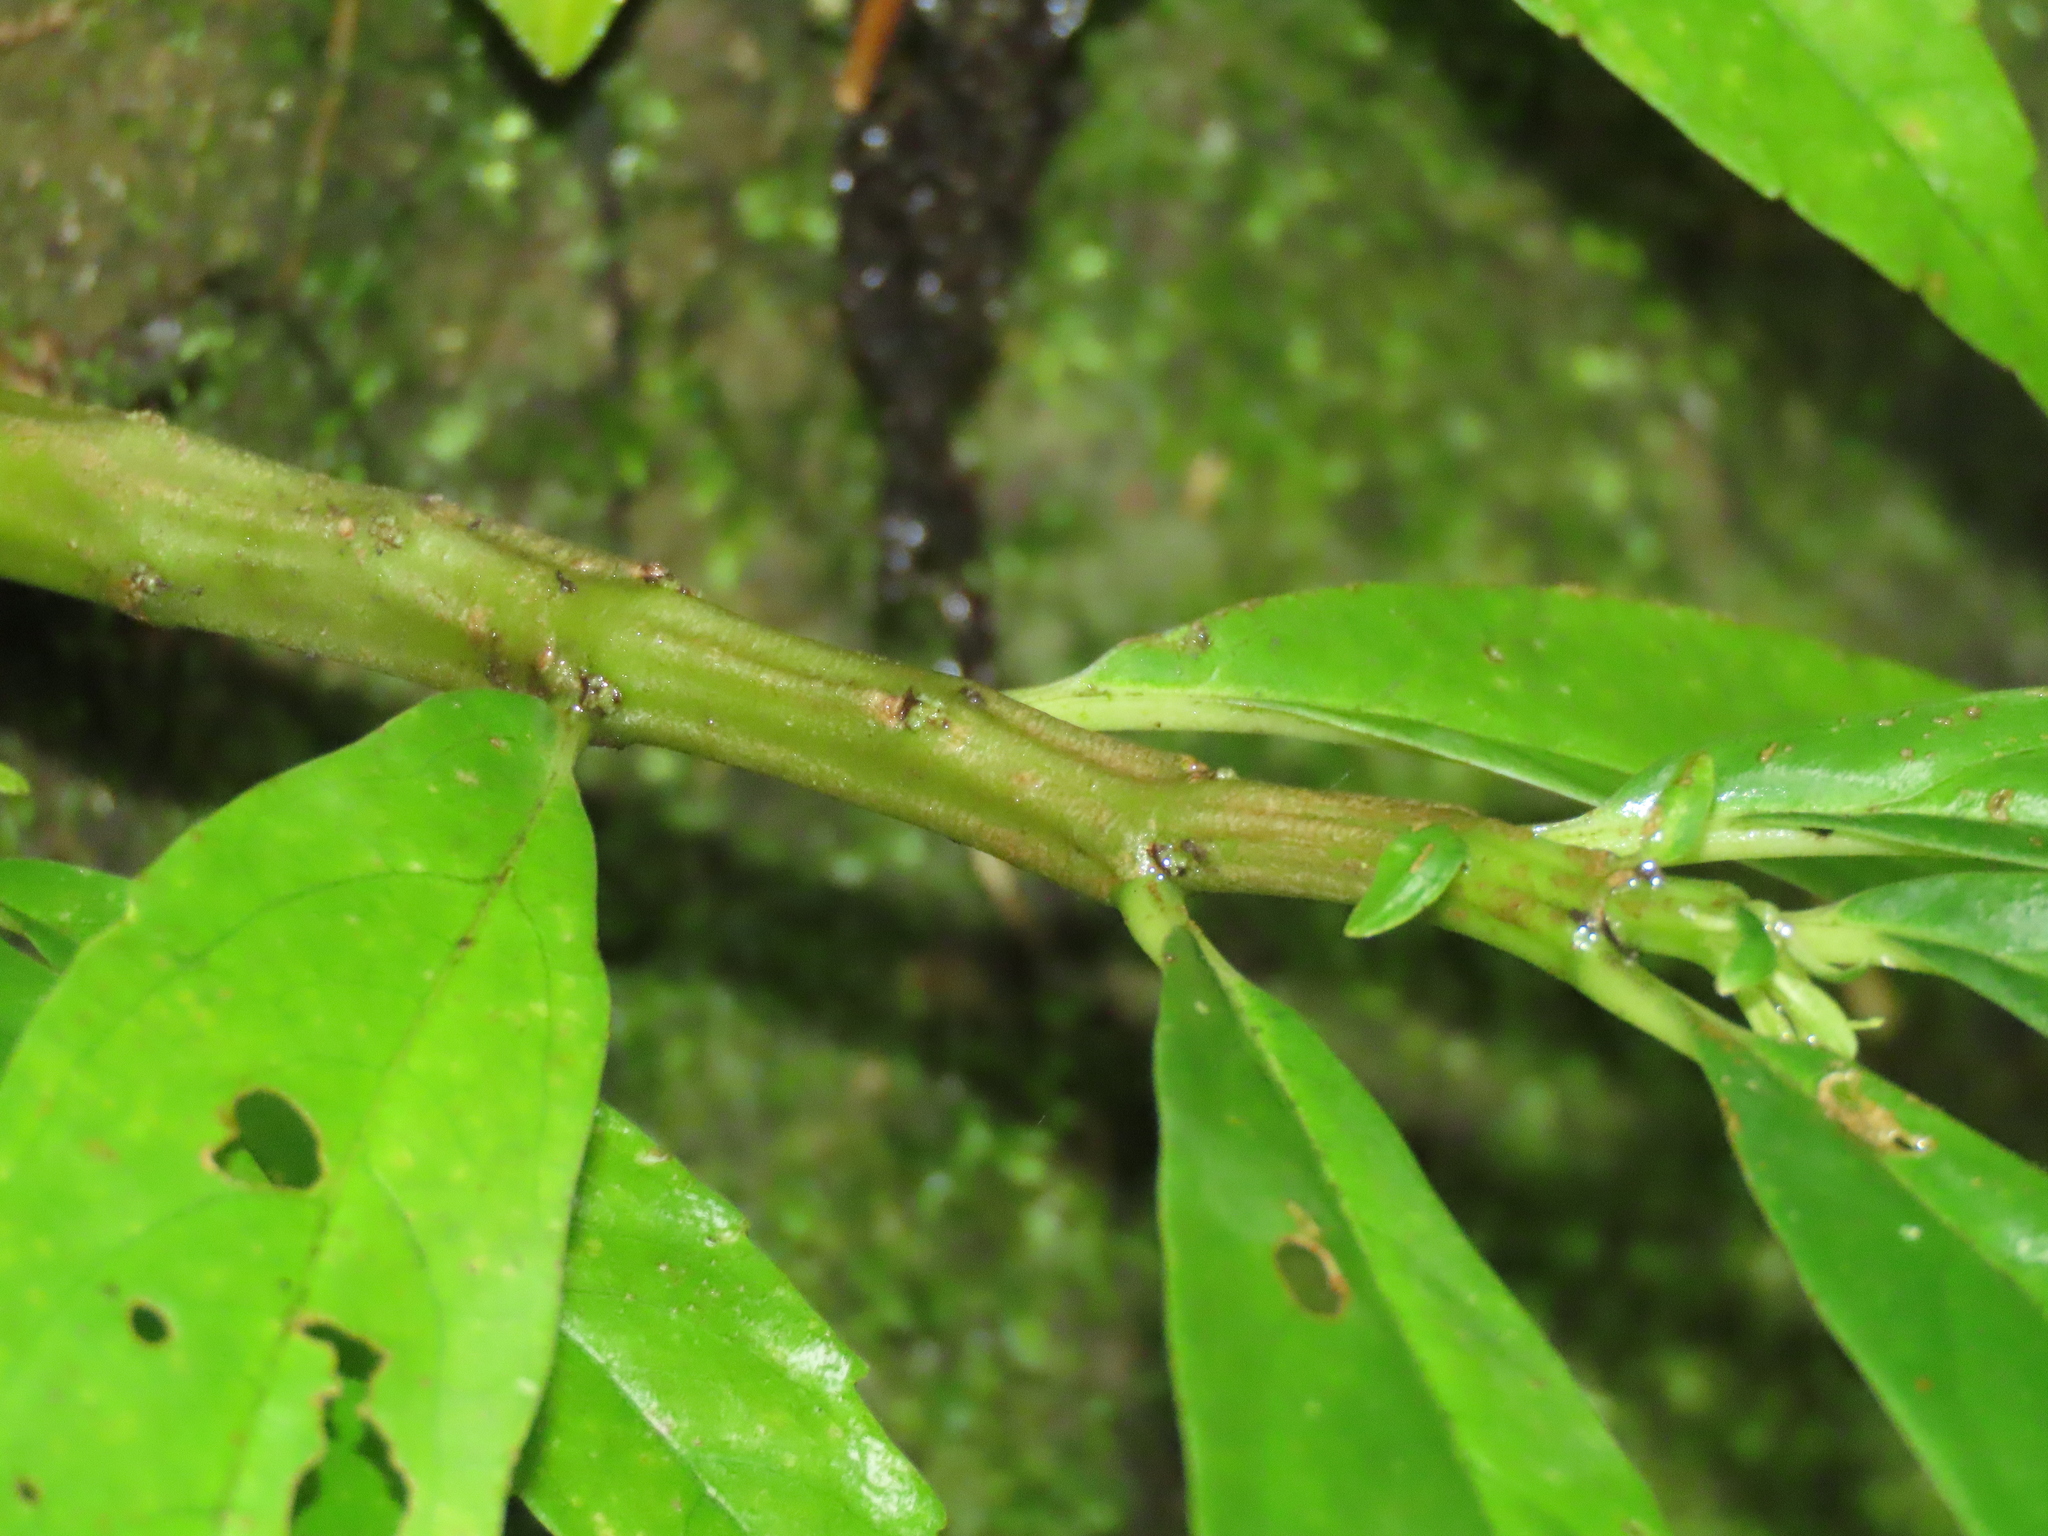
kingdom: Plantae
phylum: Tracheophyta
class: Magnoliopsida
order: Rosales
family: Urticaceae
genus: Procris
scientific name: Procris
